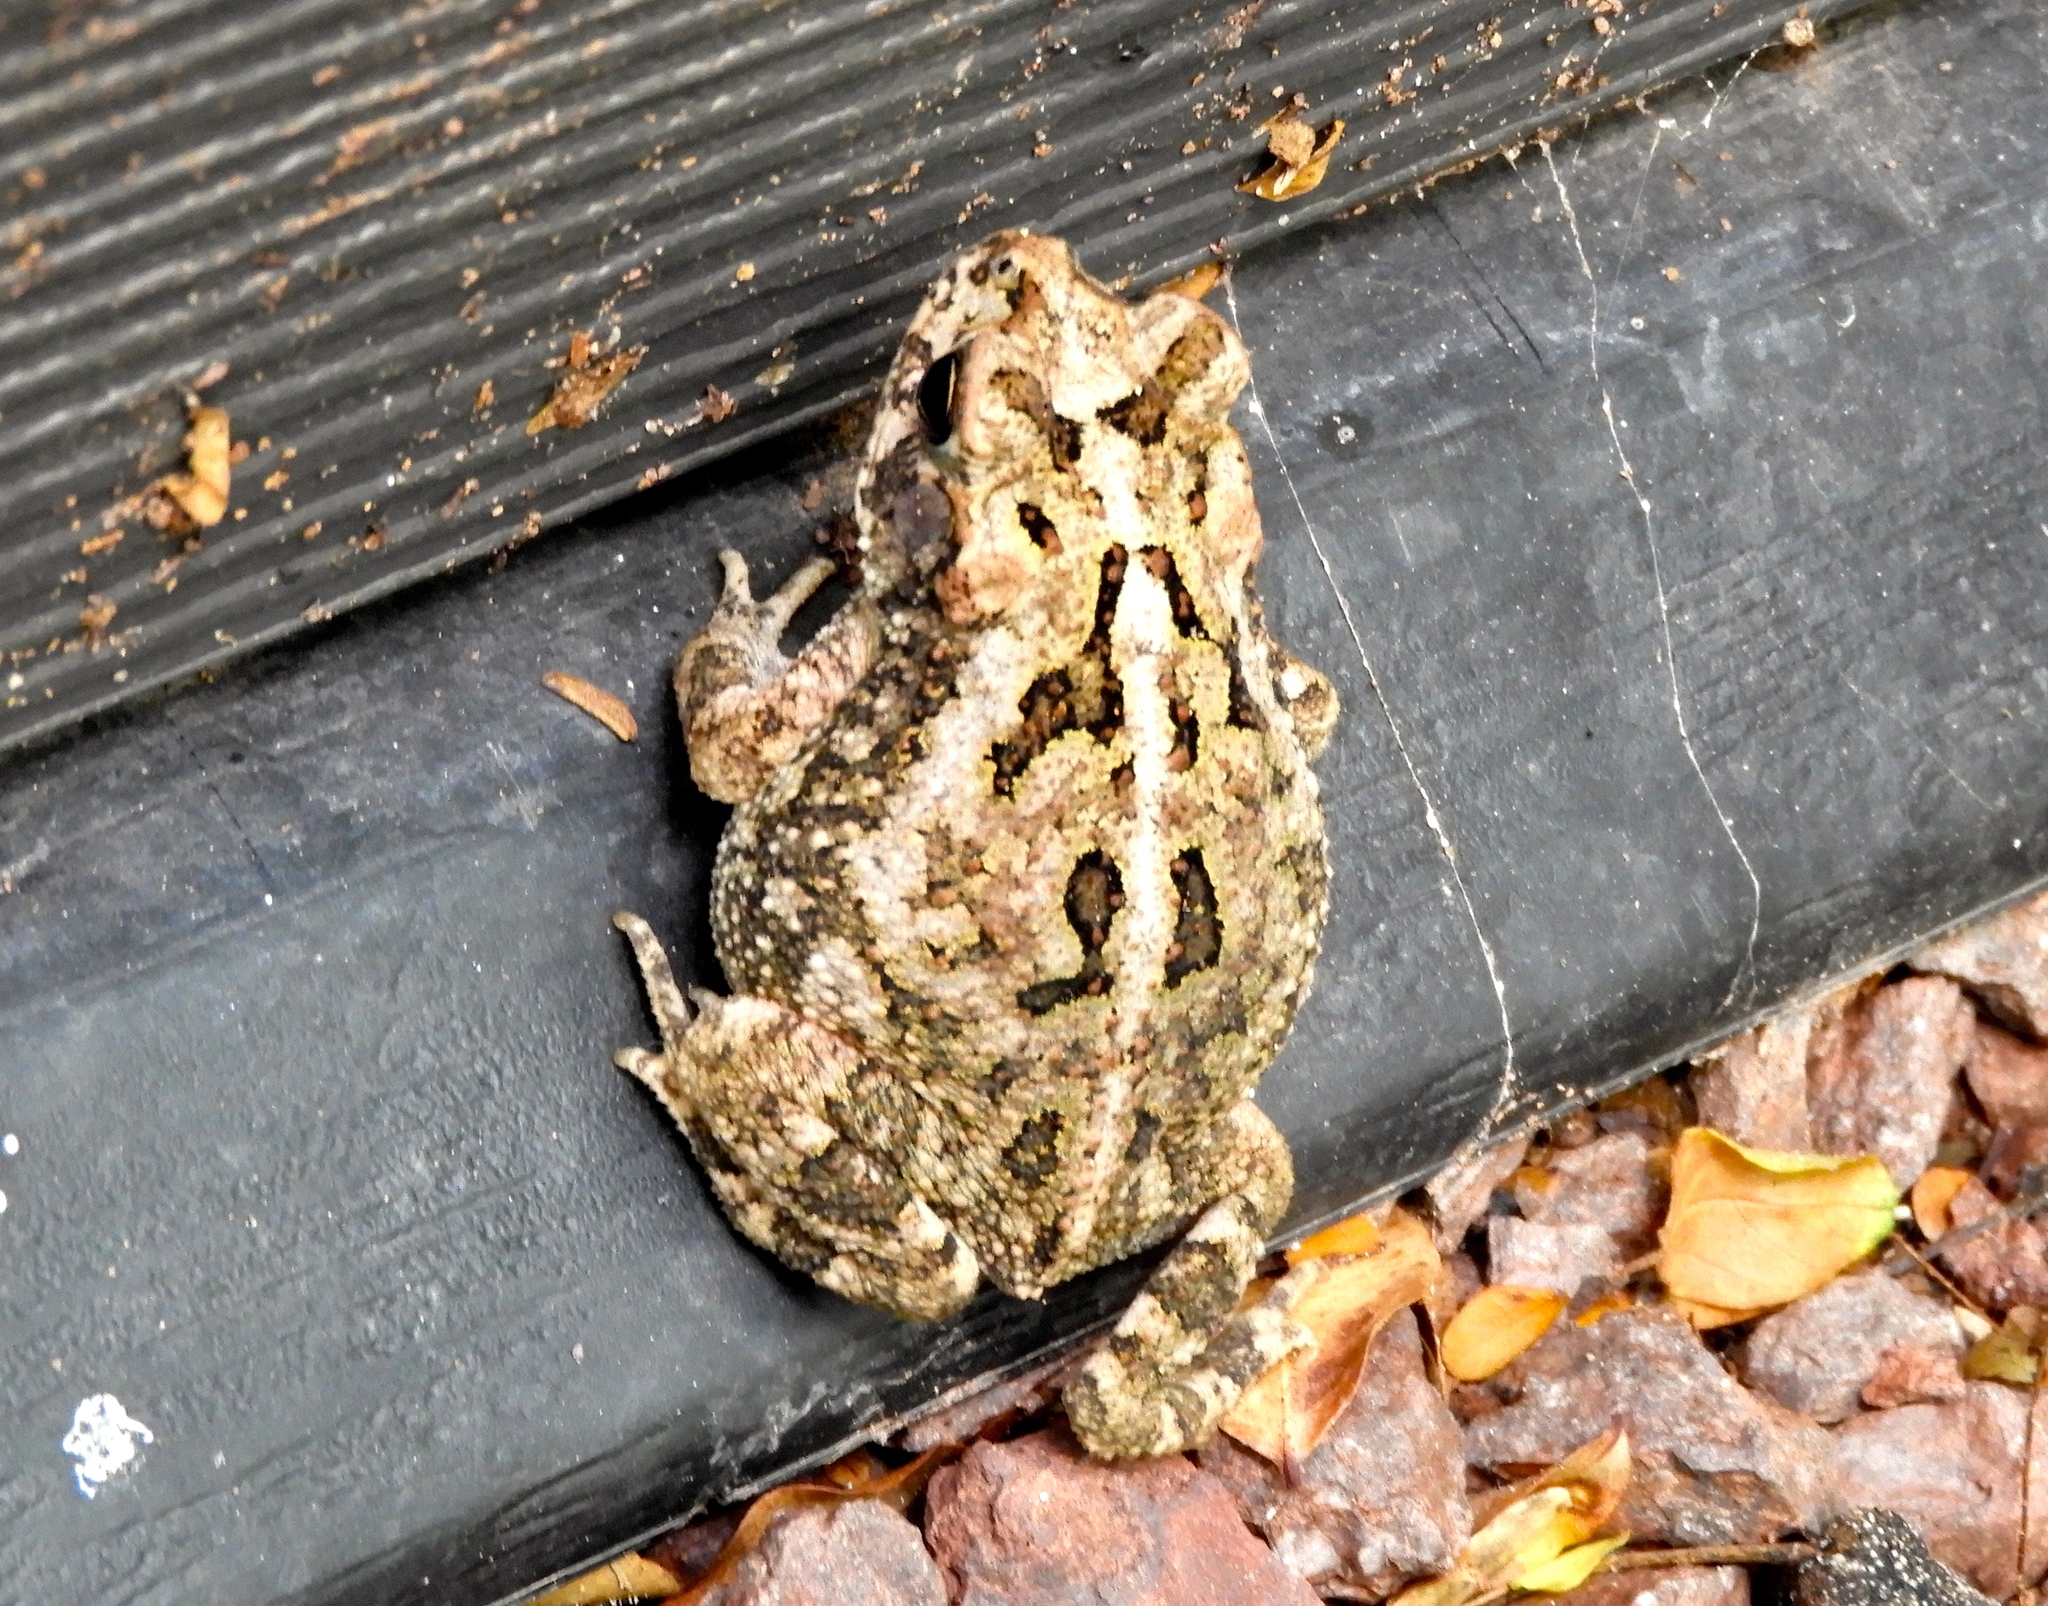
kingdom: Animalia
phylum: Chordata
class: Amphibia
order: Anura
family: Bufonidae
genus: Incilius
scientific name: Incilius marmoreus
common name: Marbled toad
